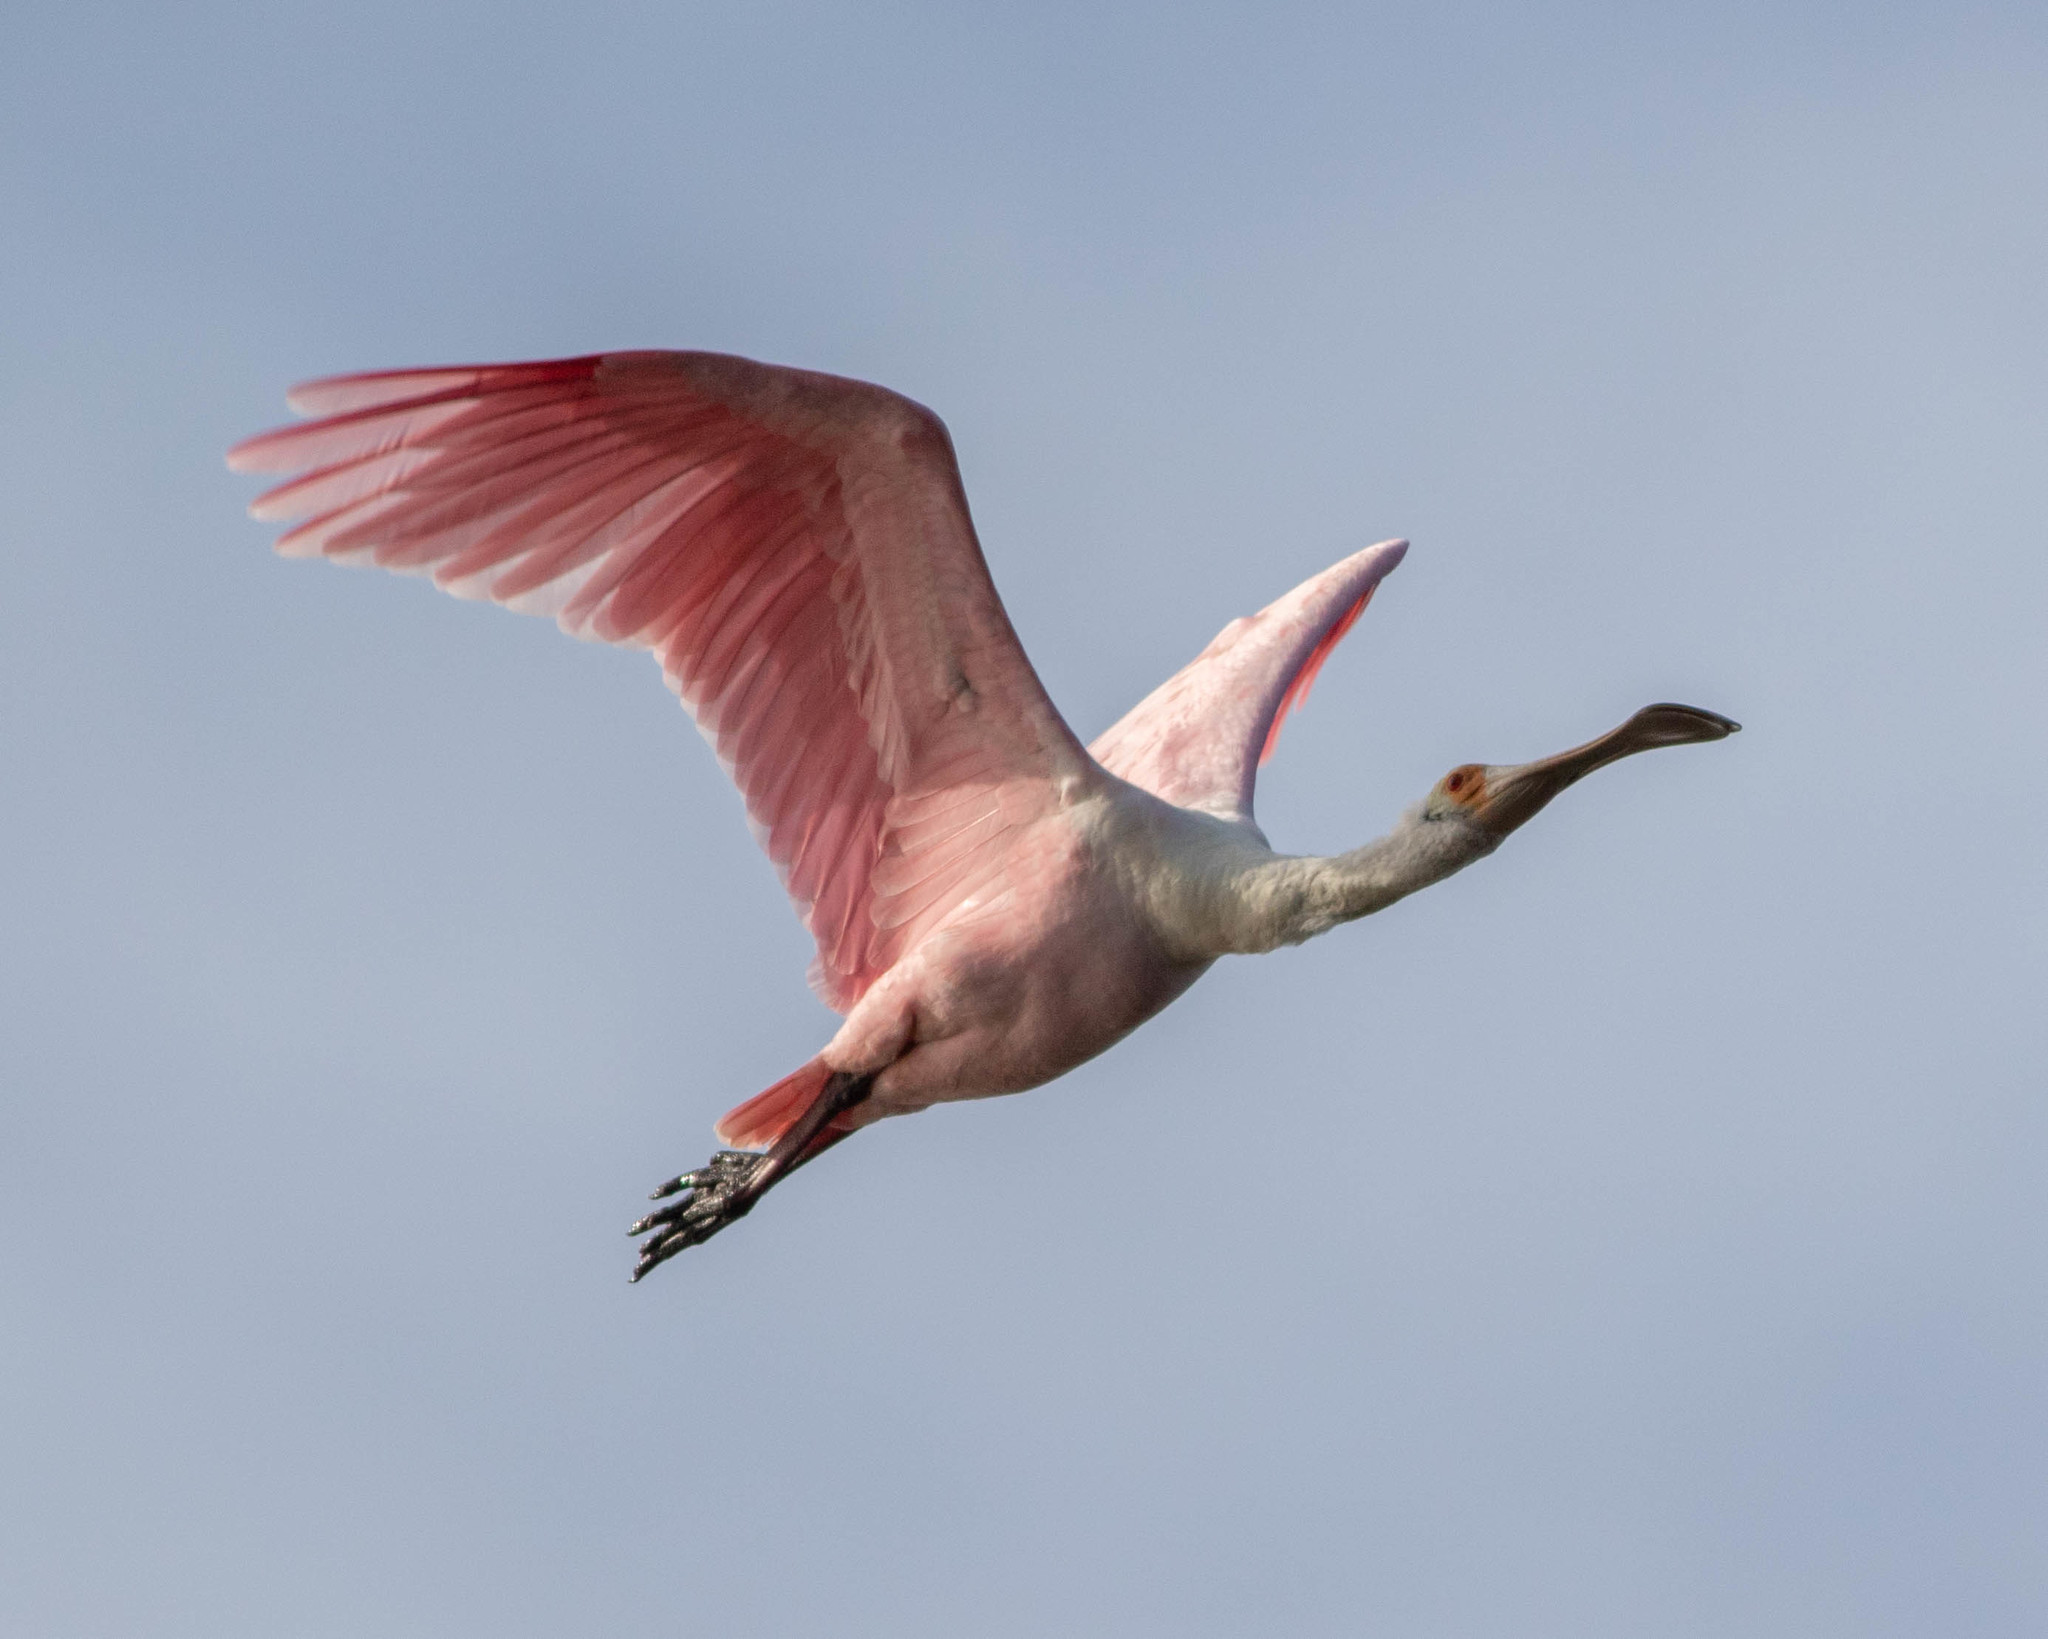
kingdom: Animalia
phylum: Chordata
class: Aves
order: Pelecaniformes
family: Threskiornithidae
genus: Platalea
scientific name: Platalea ajaja
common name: Roseate spoonbill
